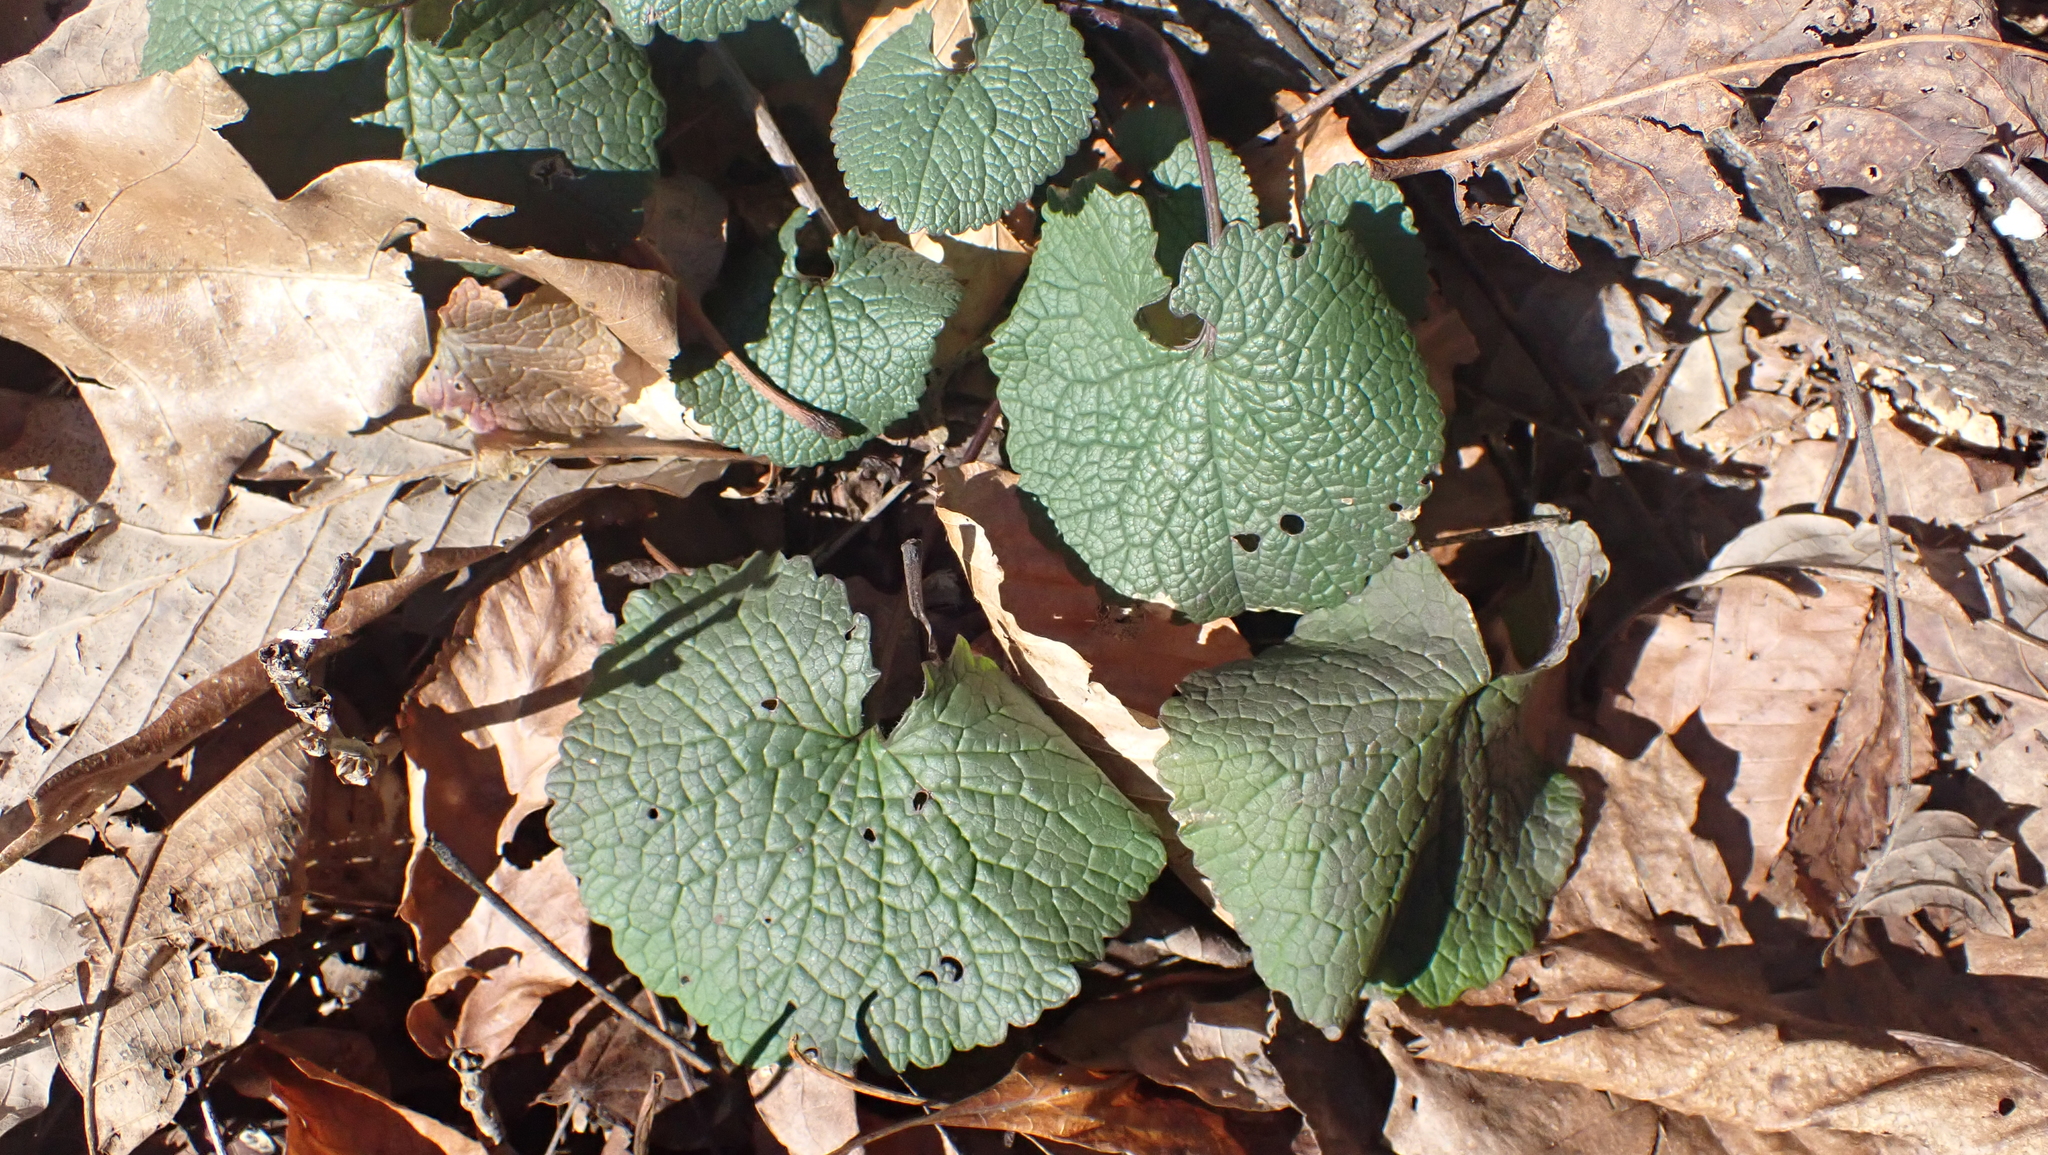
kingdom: Plantae
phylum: Tracheophyta
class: Magnoliopsida
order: Brassicales
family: Brassicaceae
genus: Alliaria
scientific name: Alliaria petiolata
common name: Garlic mustard
